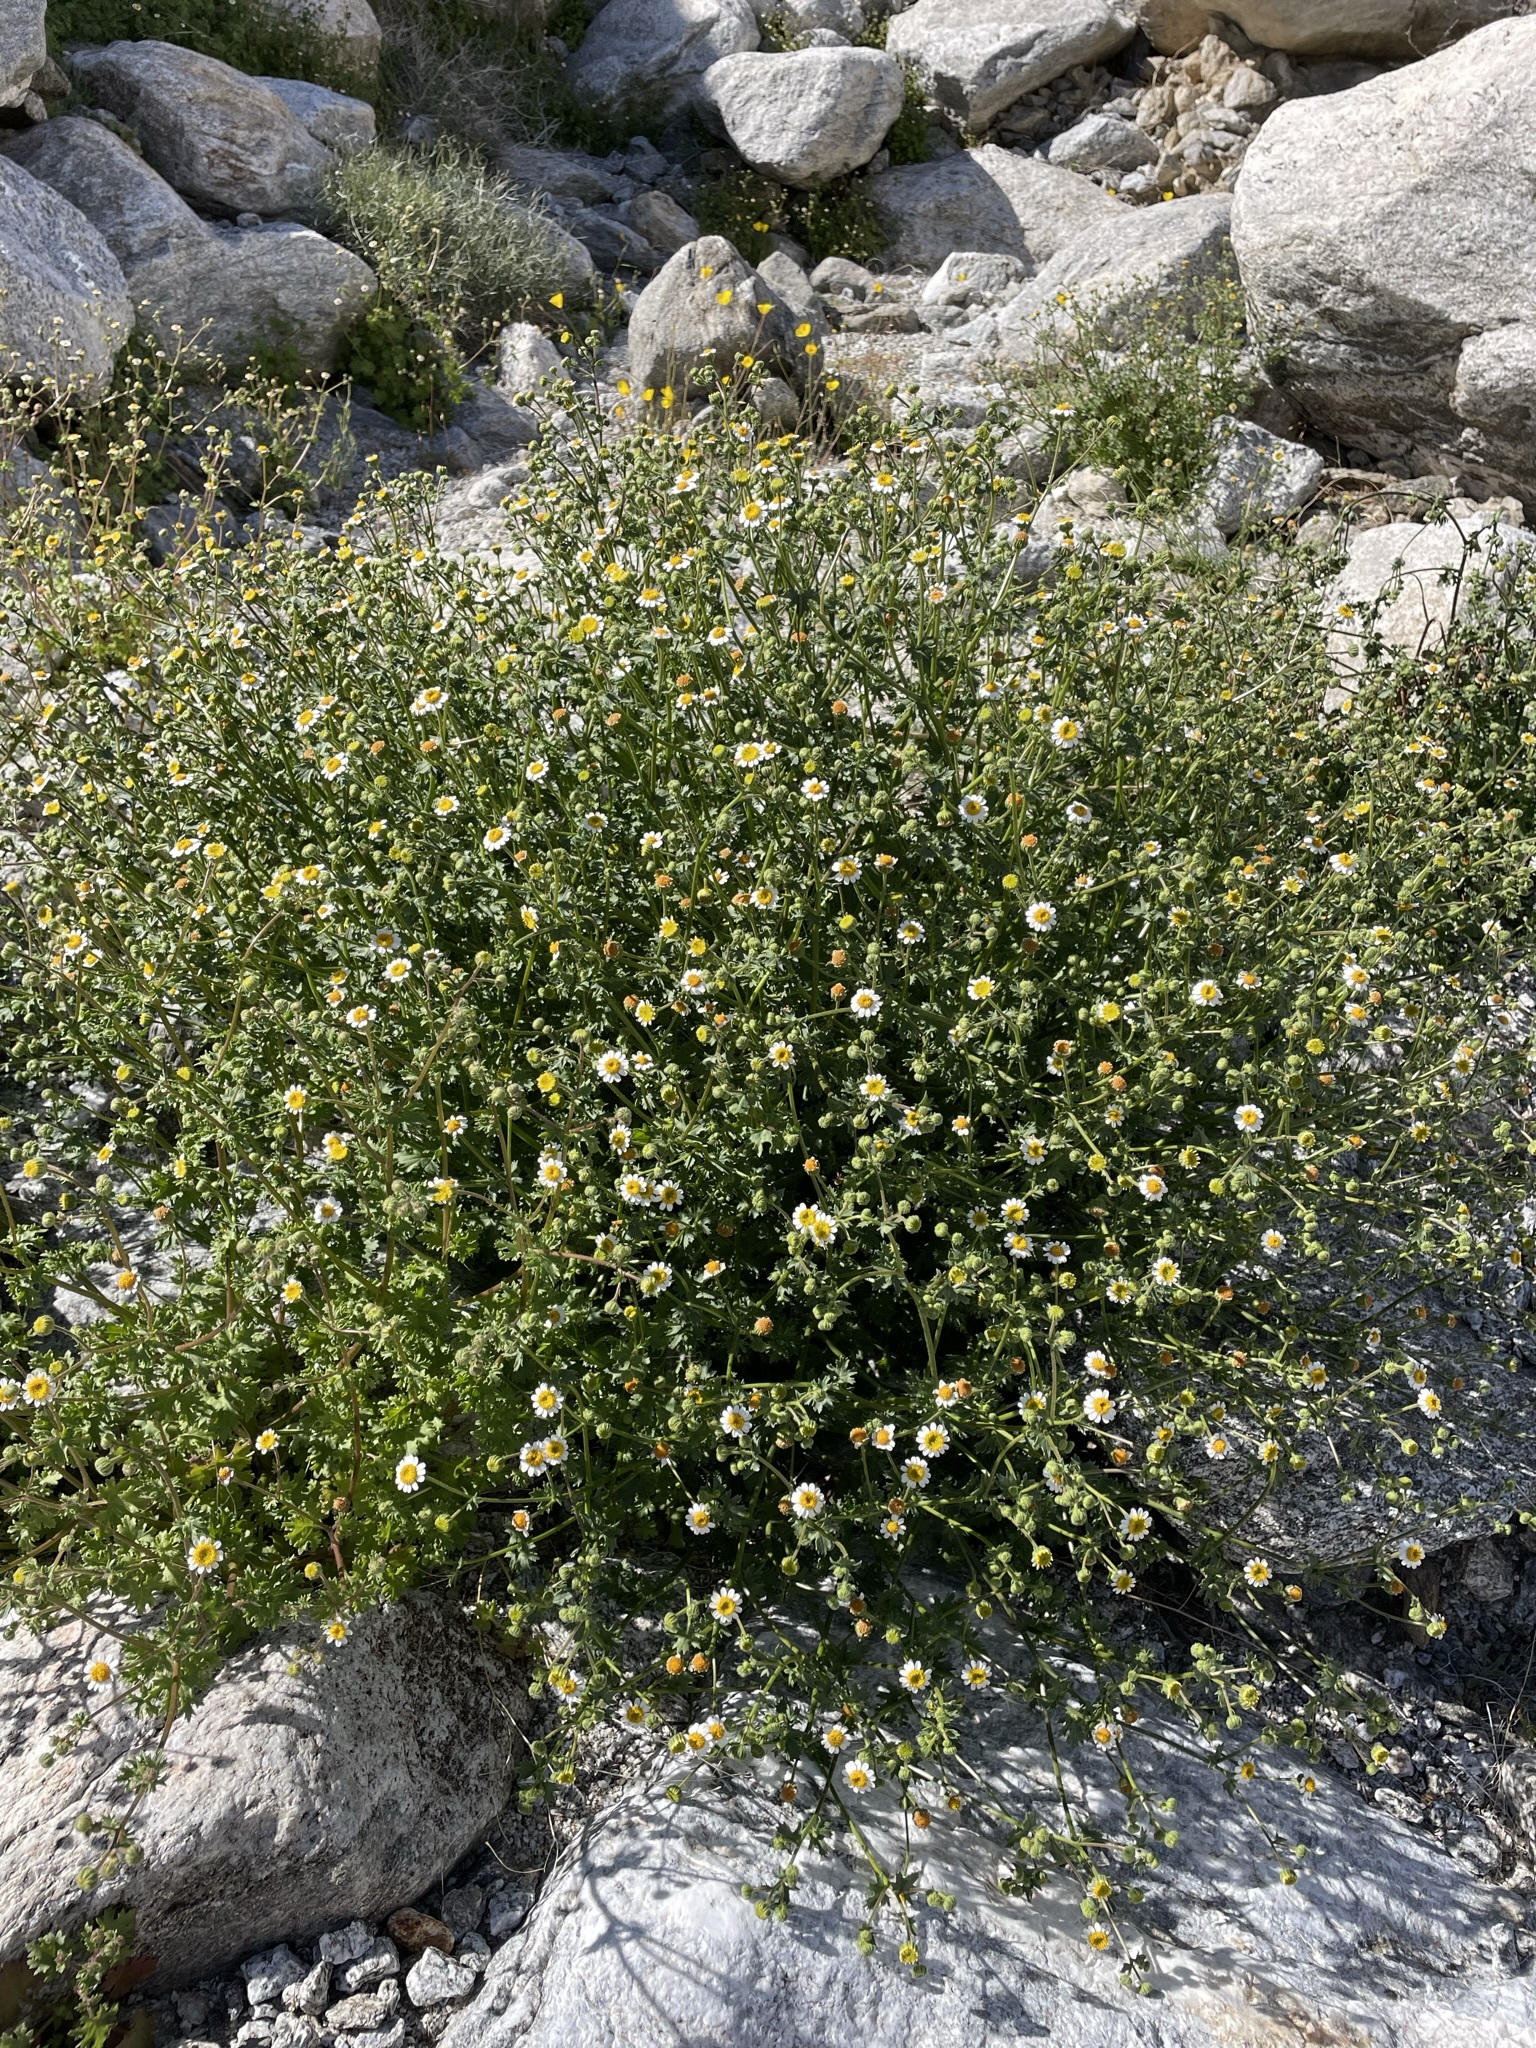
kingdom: Plantae
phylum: Tracheophyta
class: Magnoliopsida
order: Asterales
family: Asteraceae
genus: Laphamia
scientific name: Laphamia emoryi
